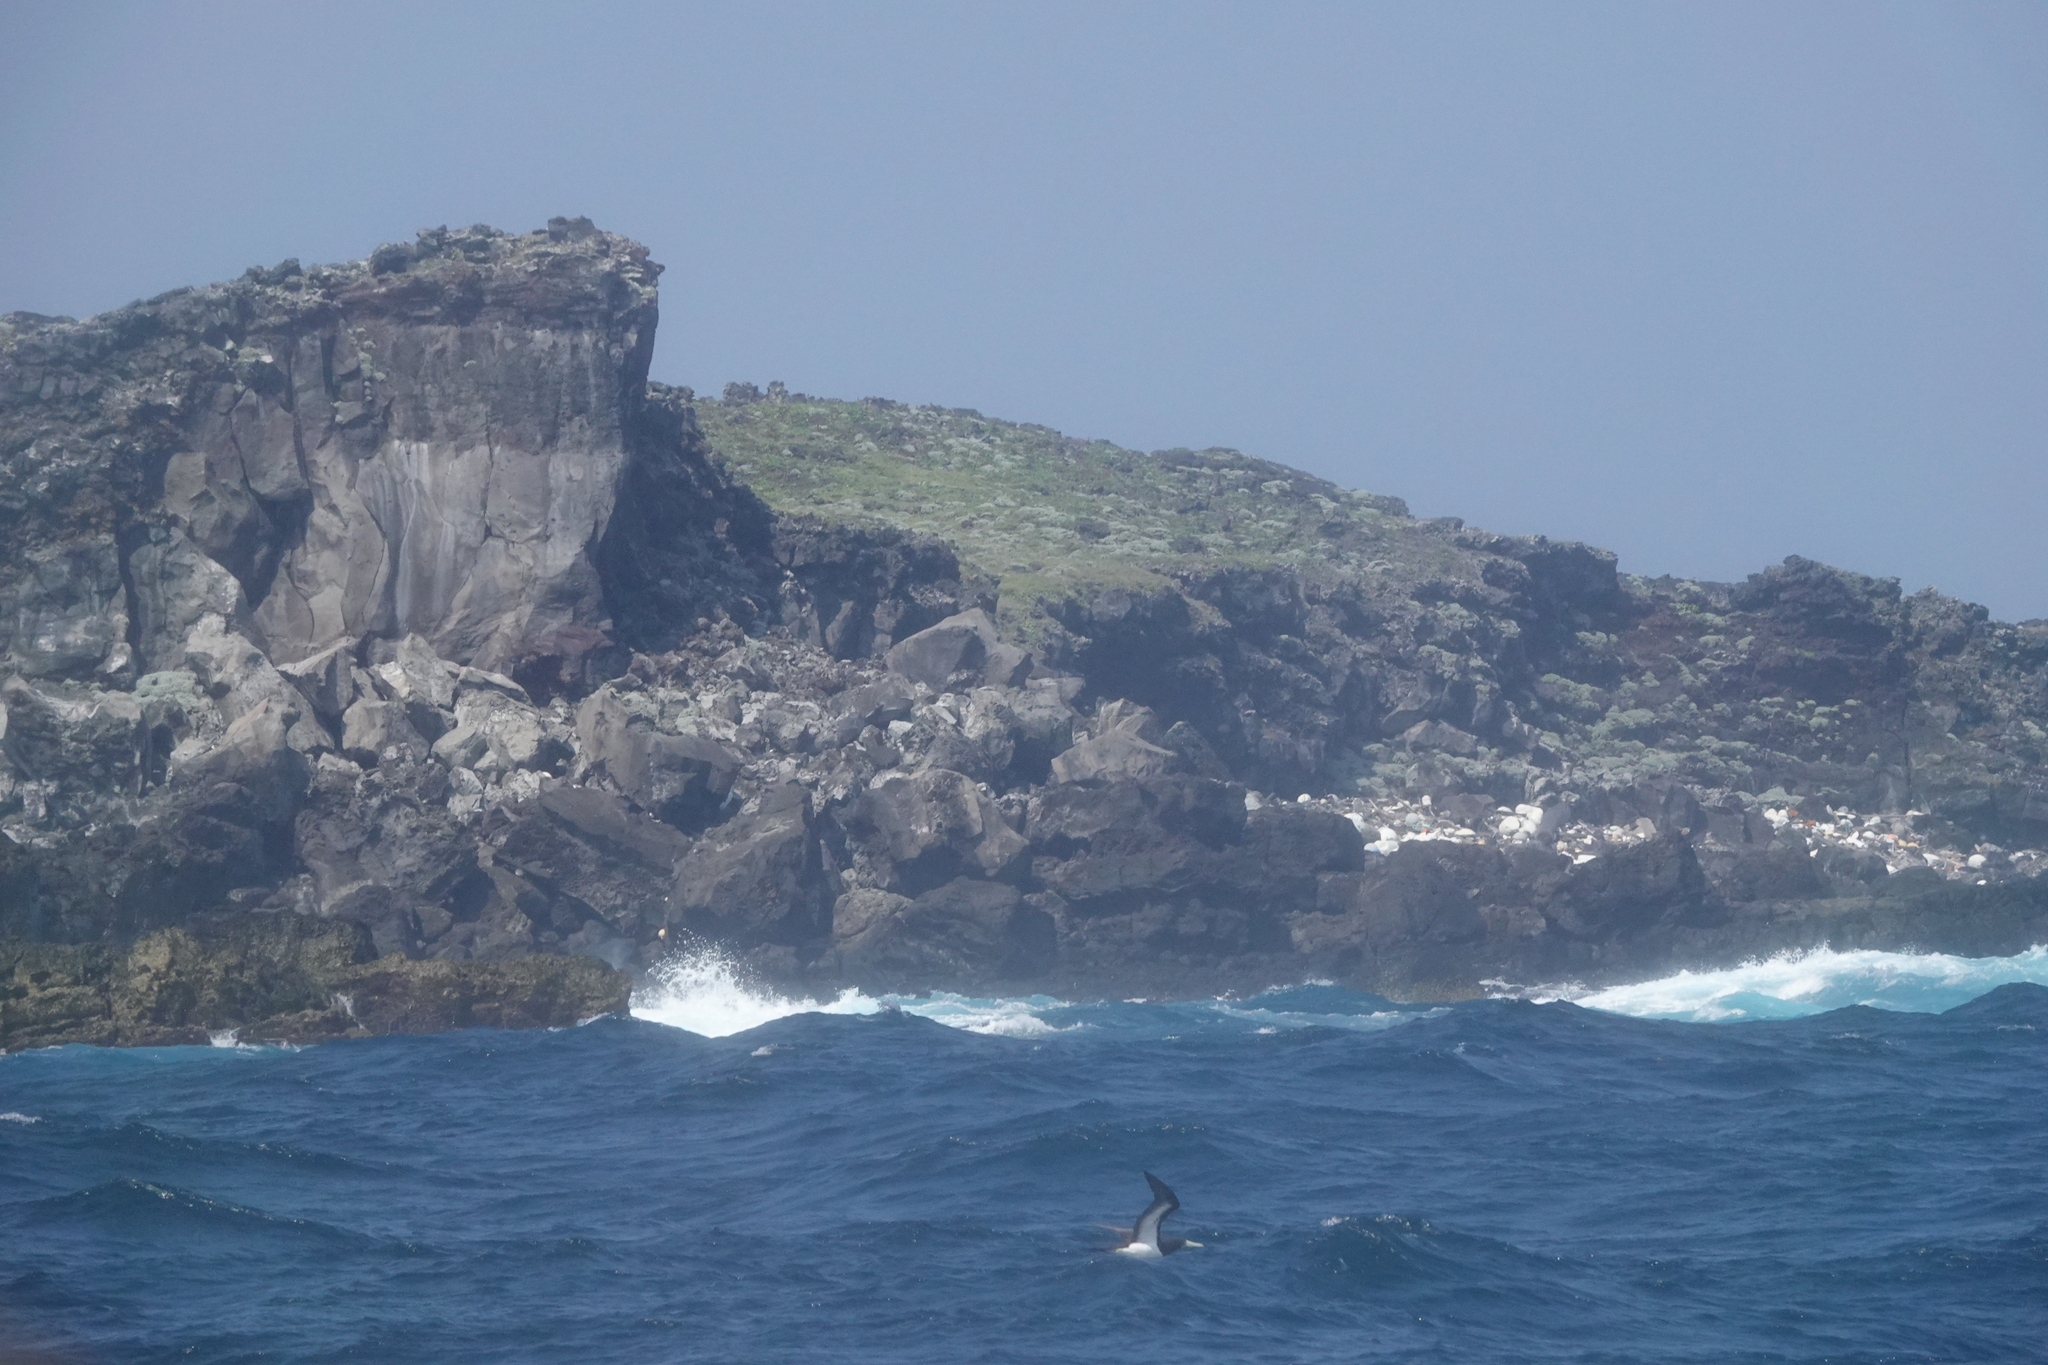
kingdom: Animalia
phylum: Chordata
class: Aves
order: Suliformes
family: Sulidae
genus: Sula
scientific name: Sula leucogaster
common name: Brown booby
